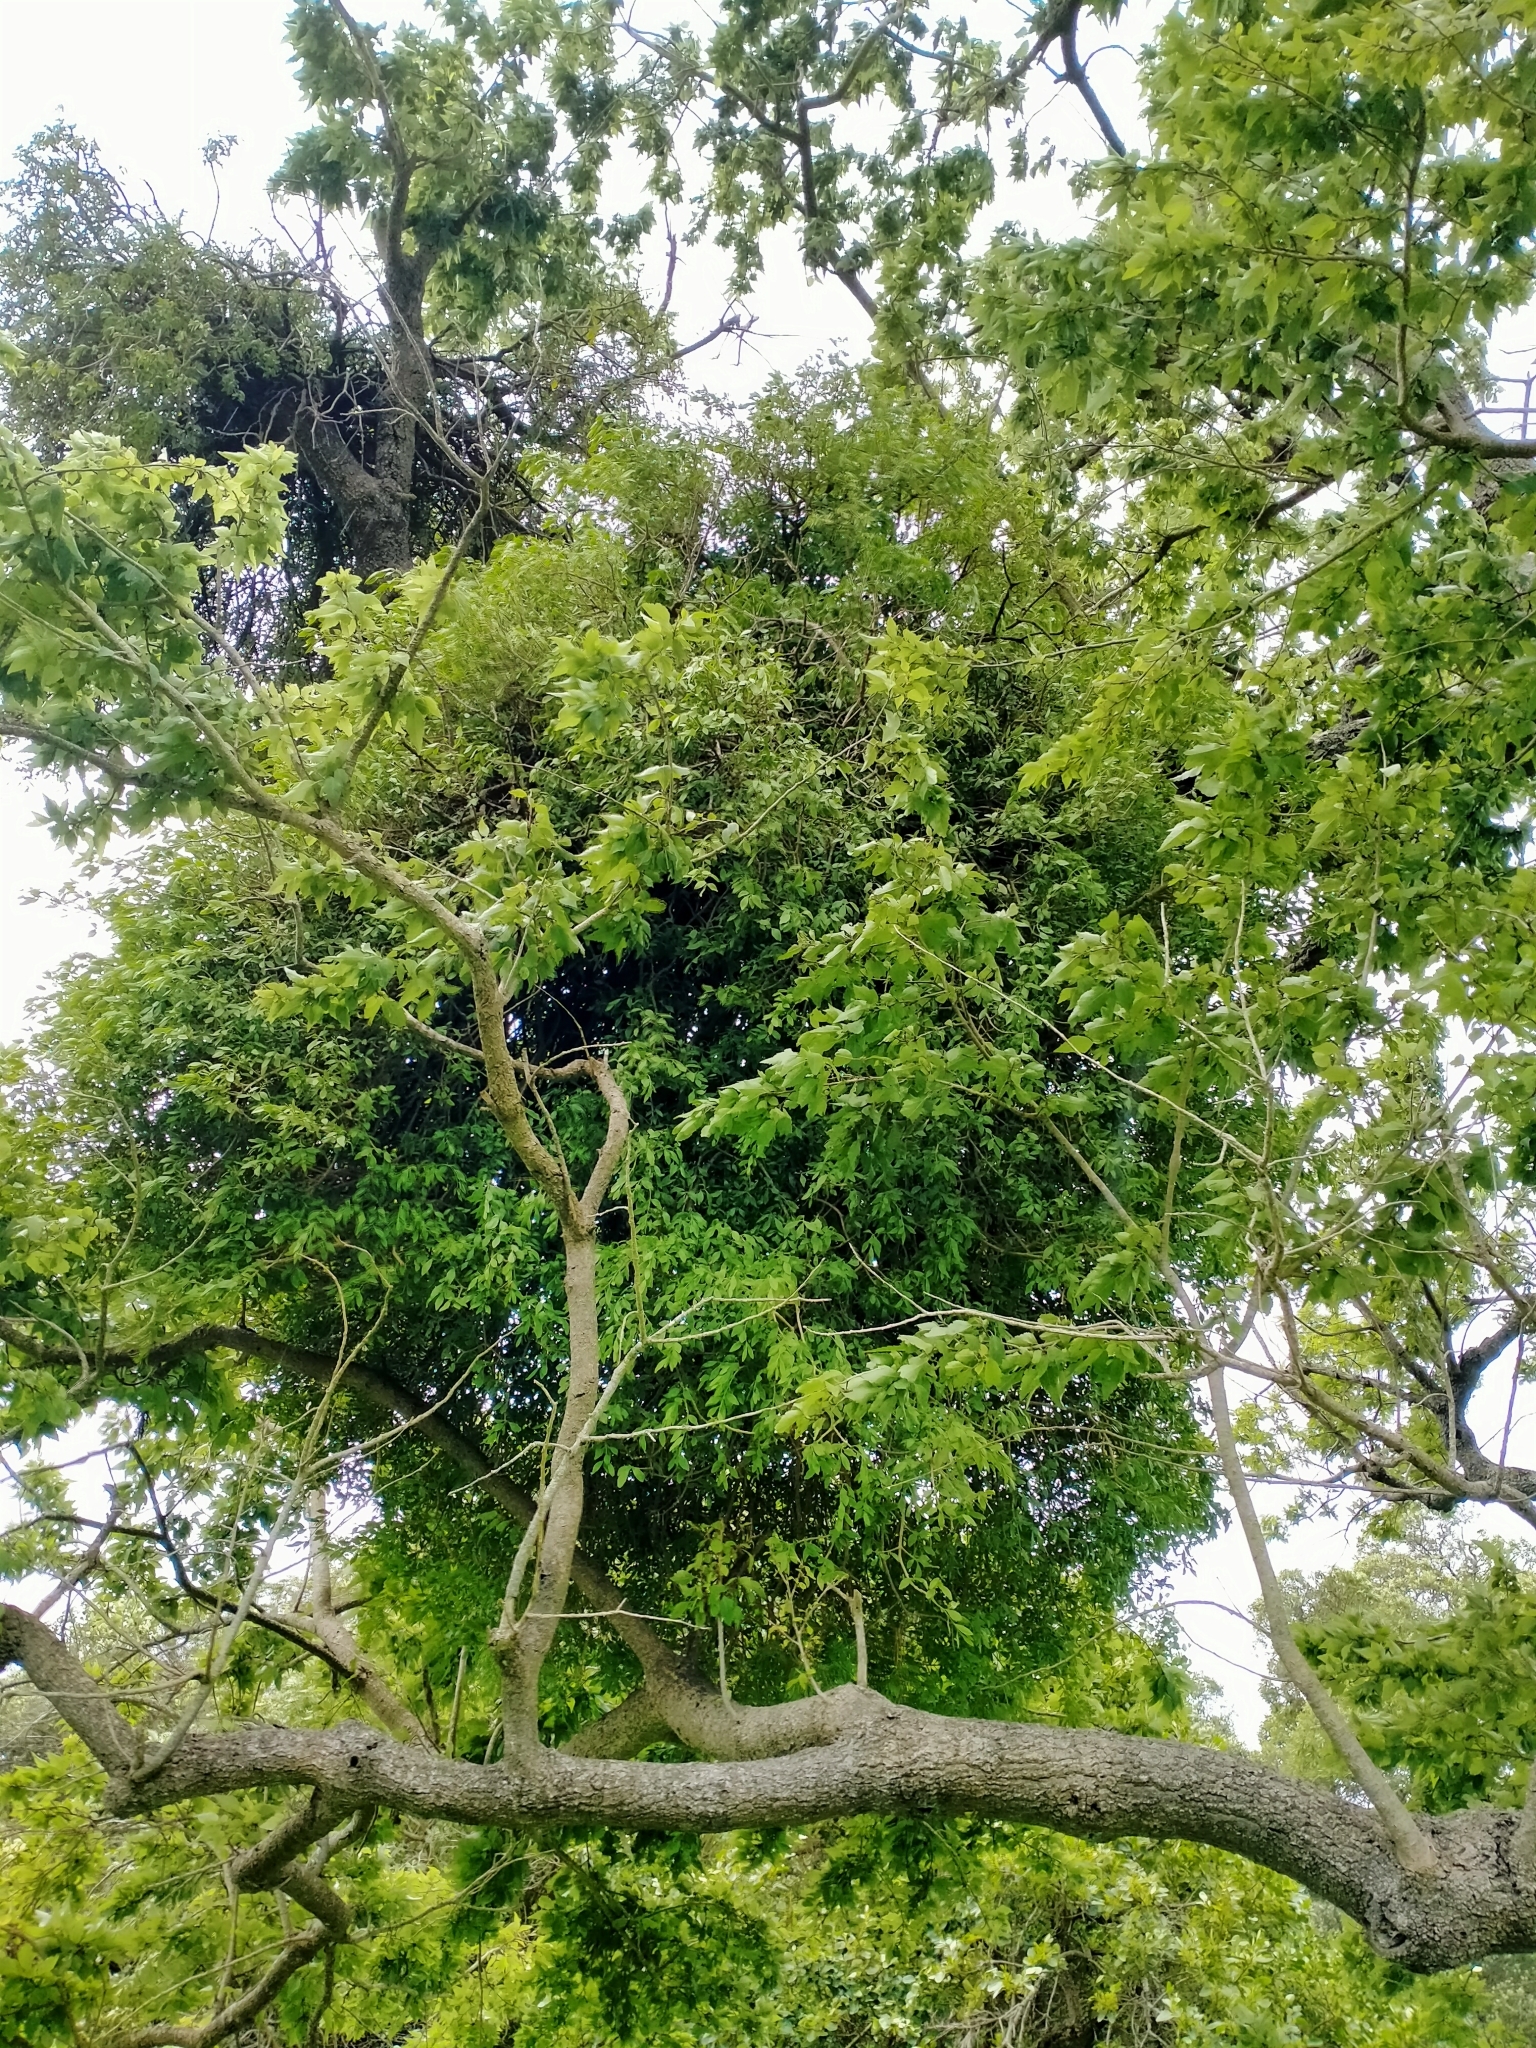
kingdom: Plantae
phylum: Tracheophyta
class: Magnoliopsida
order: Santalales
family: Loranthaceae
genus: Tupeia
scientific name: Tupeia antarctica
